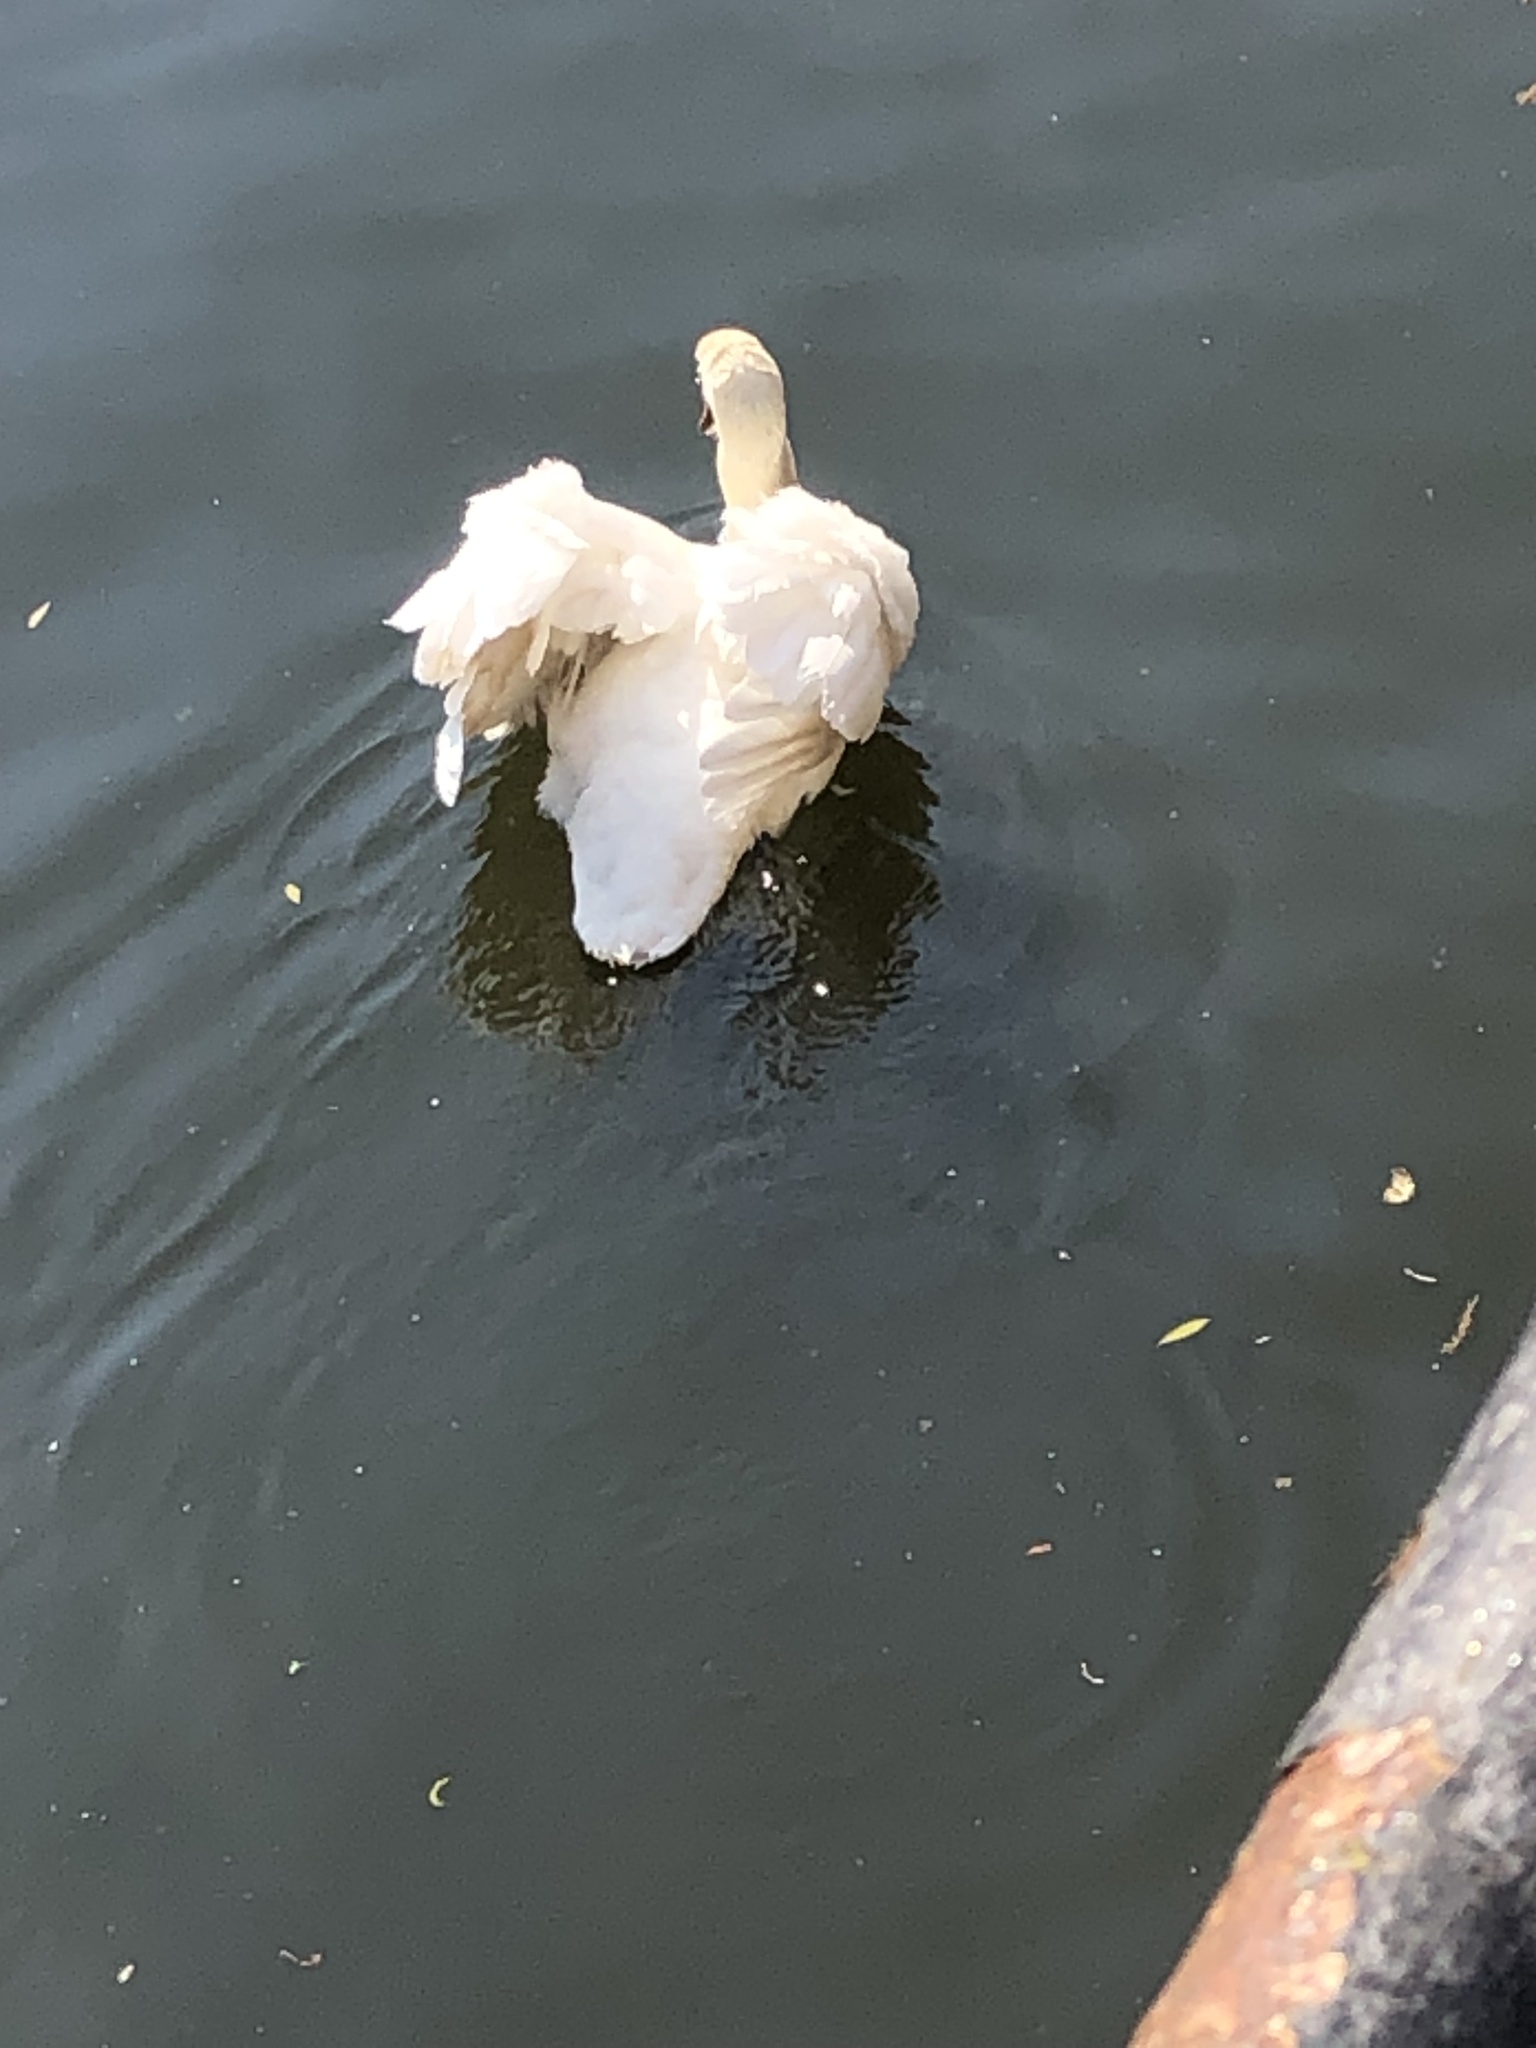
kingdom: Animalia
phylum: Chordata
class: Aves
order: Anseriformes
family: Anatidae
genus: Cygnus
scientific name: Cygnus olor
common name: Mute swan
